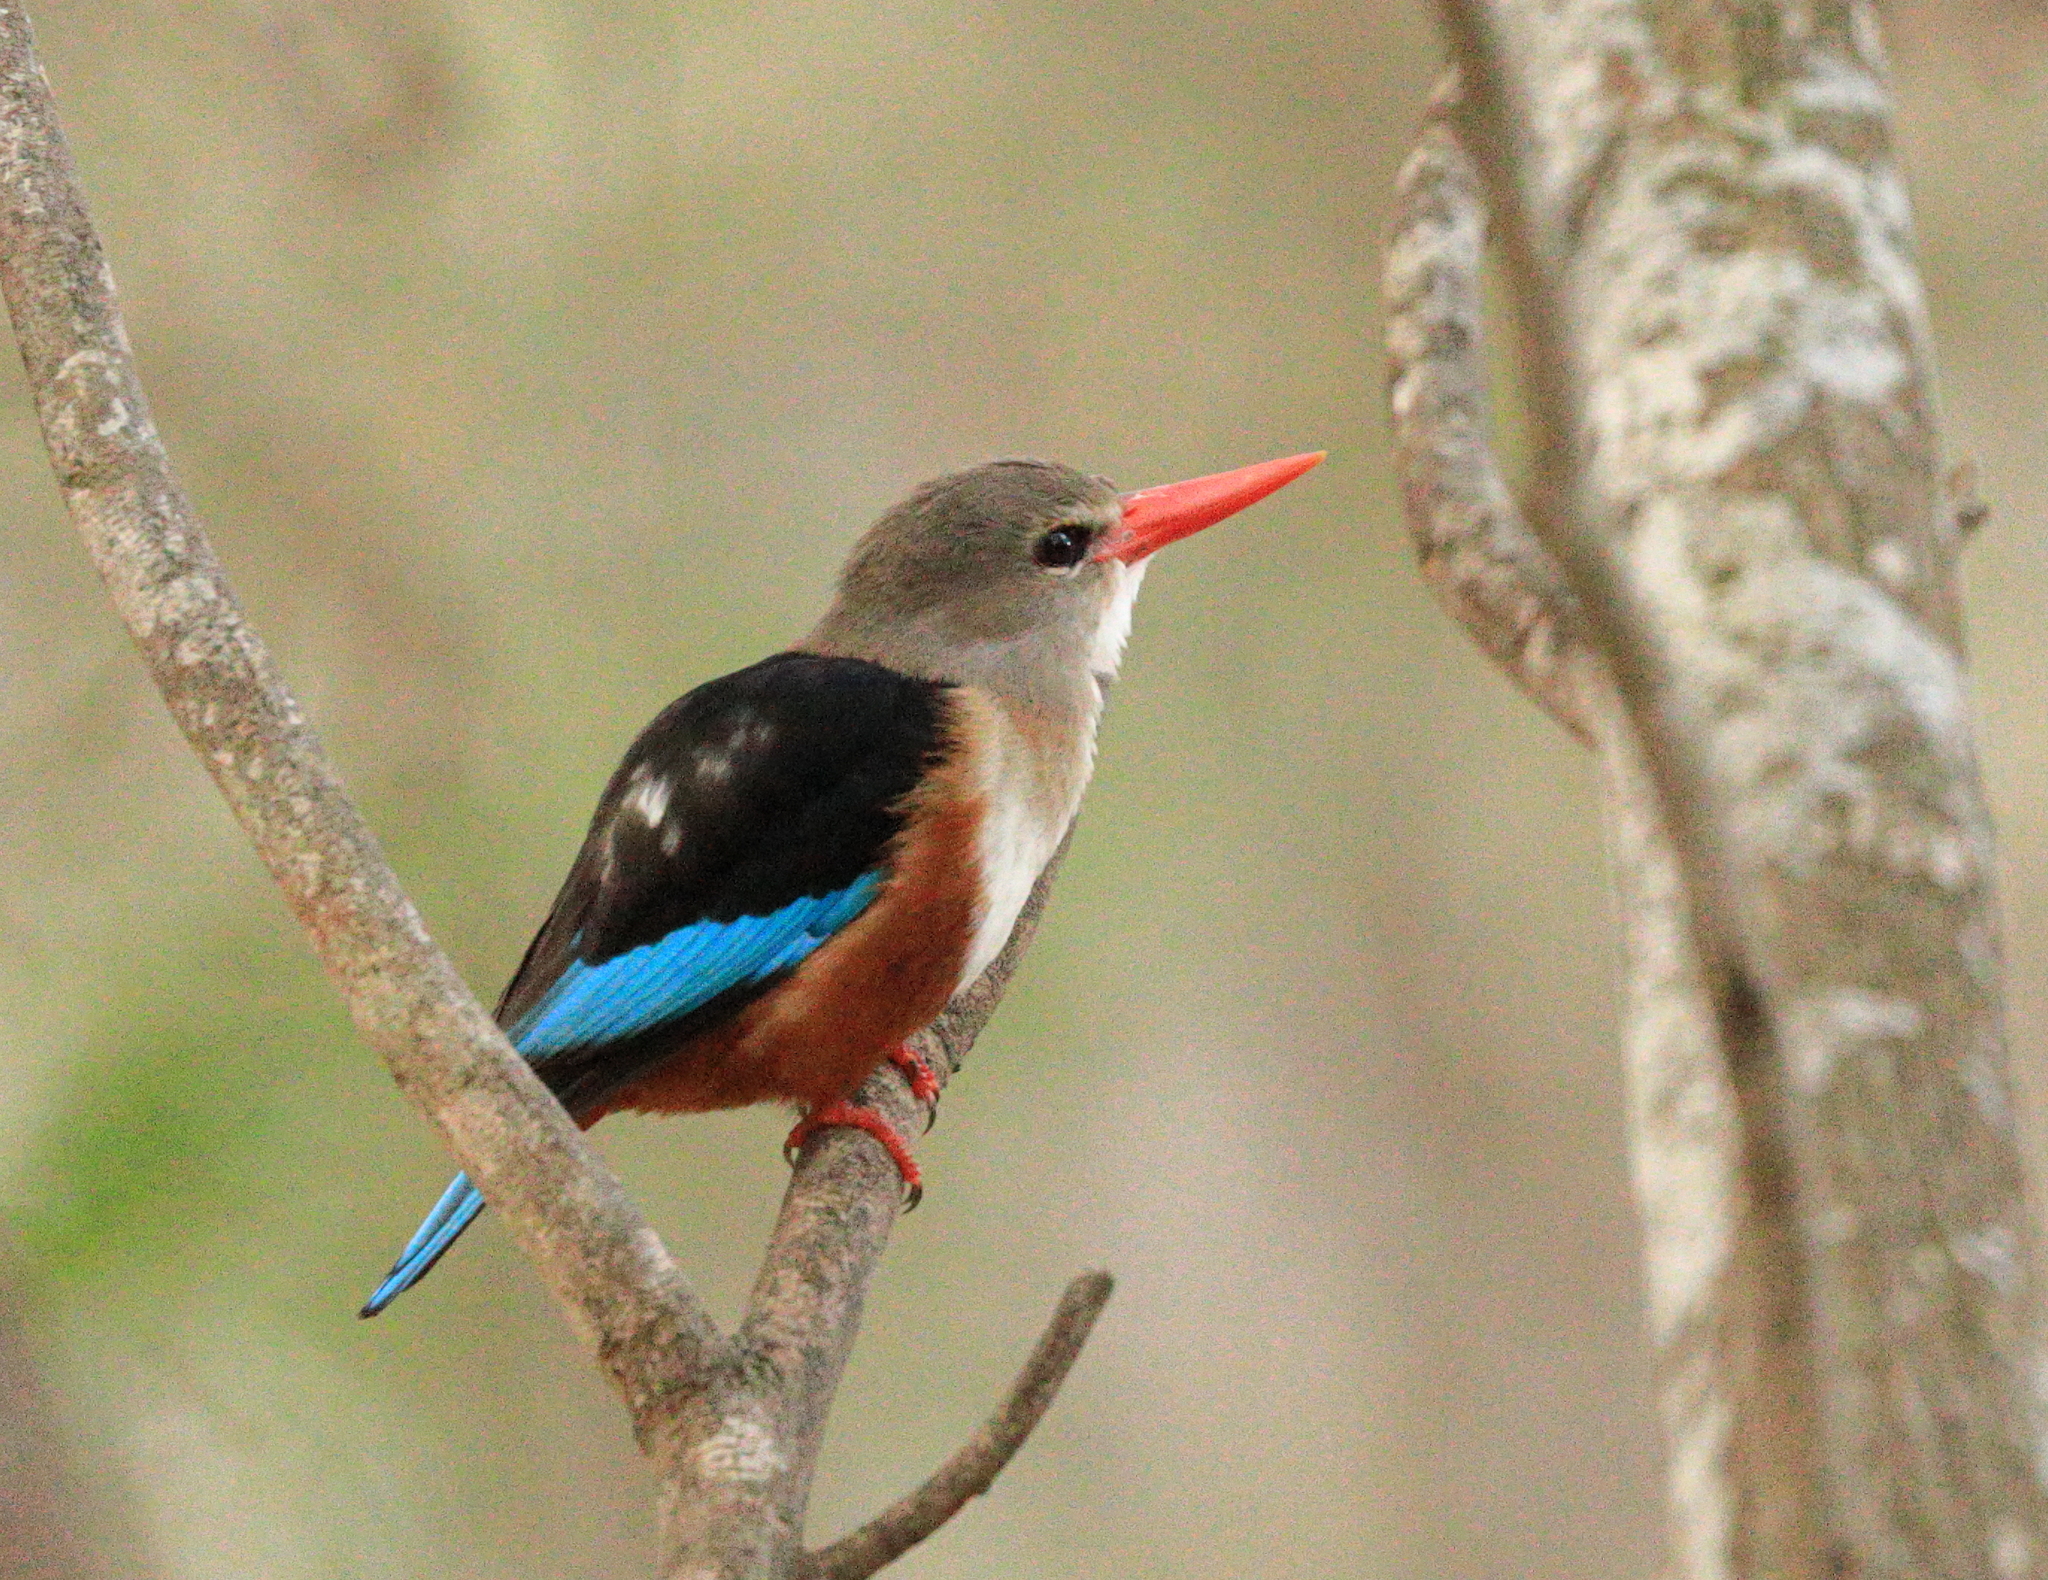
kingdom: Animalia
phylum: Chordata
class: Aves
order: Coraciiformes
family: Alcedinidae
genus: Halcyon
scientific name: Halcyon leucocephala
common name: Grey-headed kingfisher
